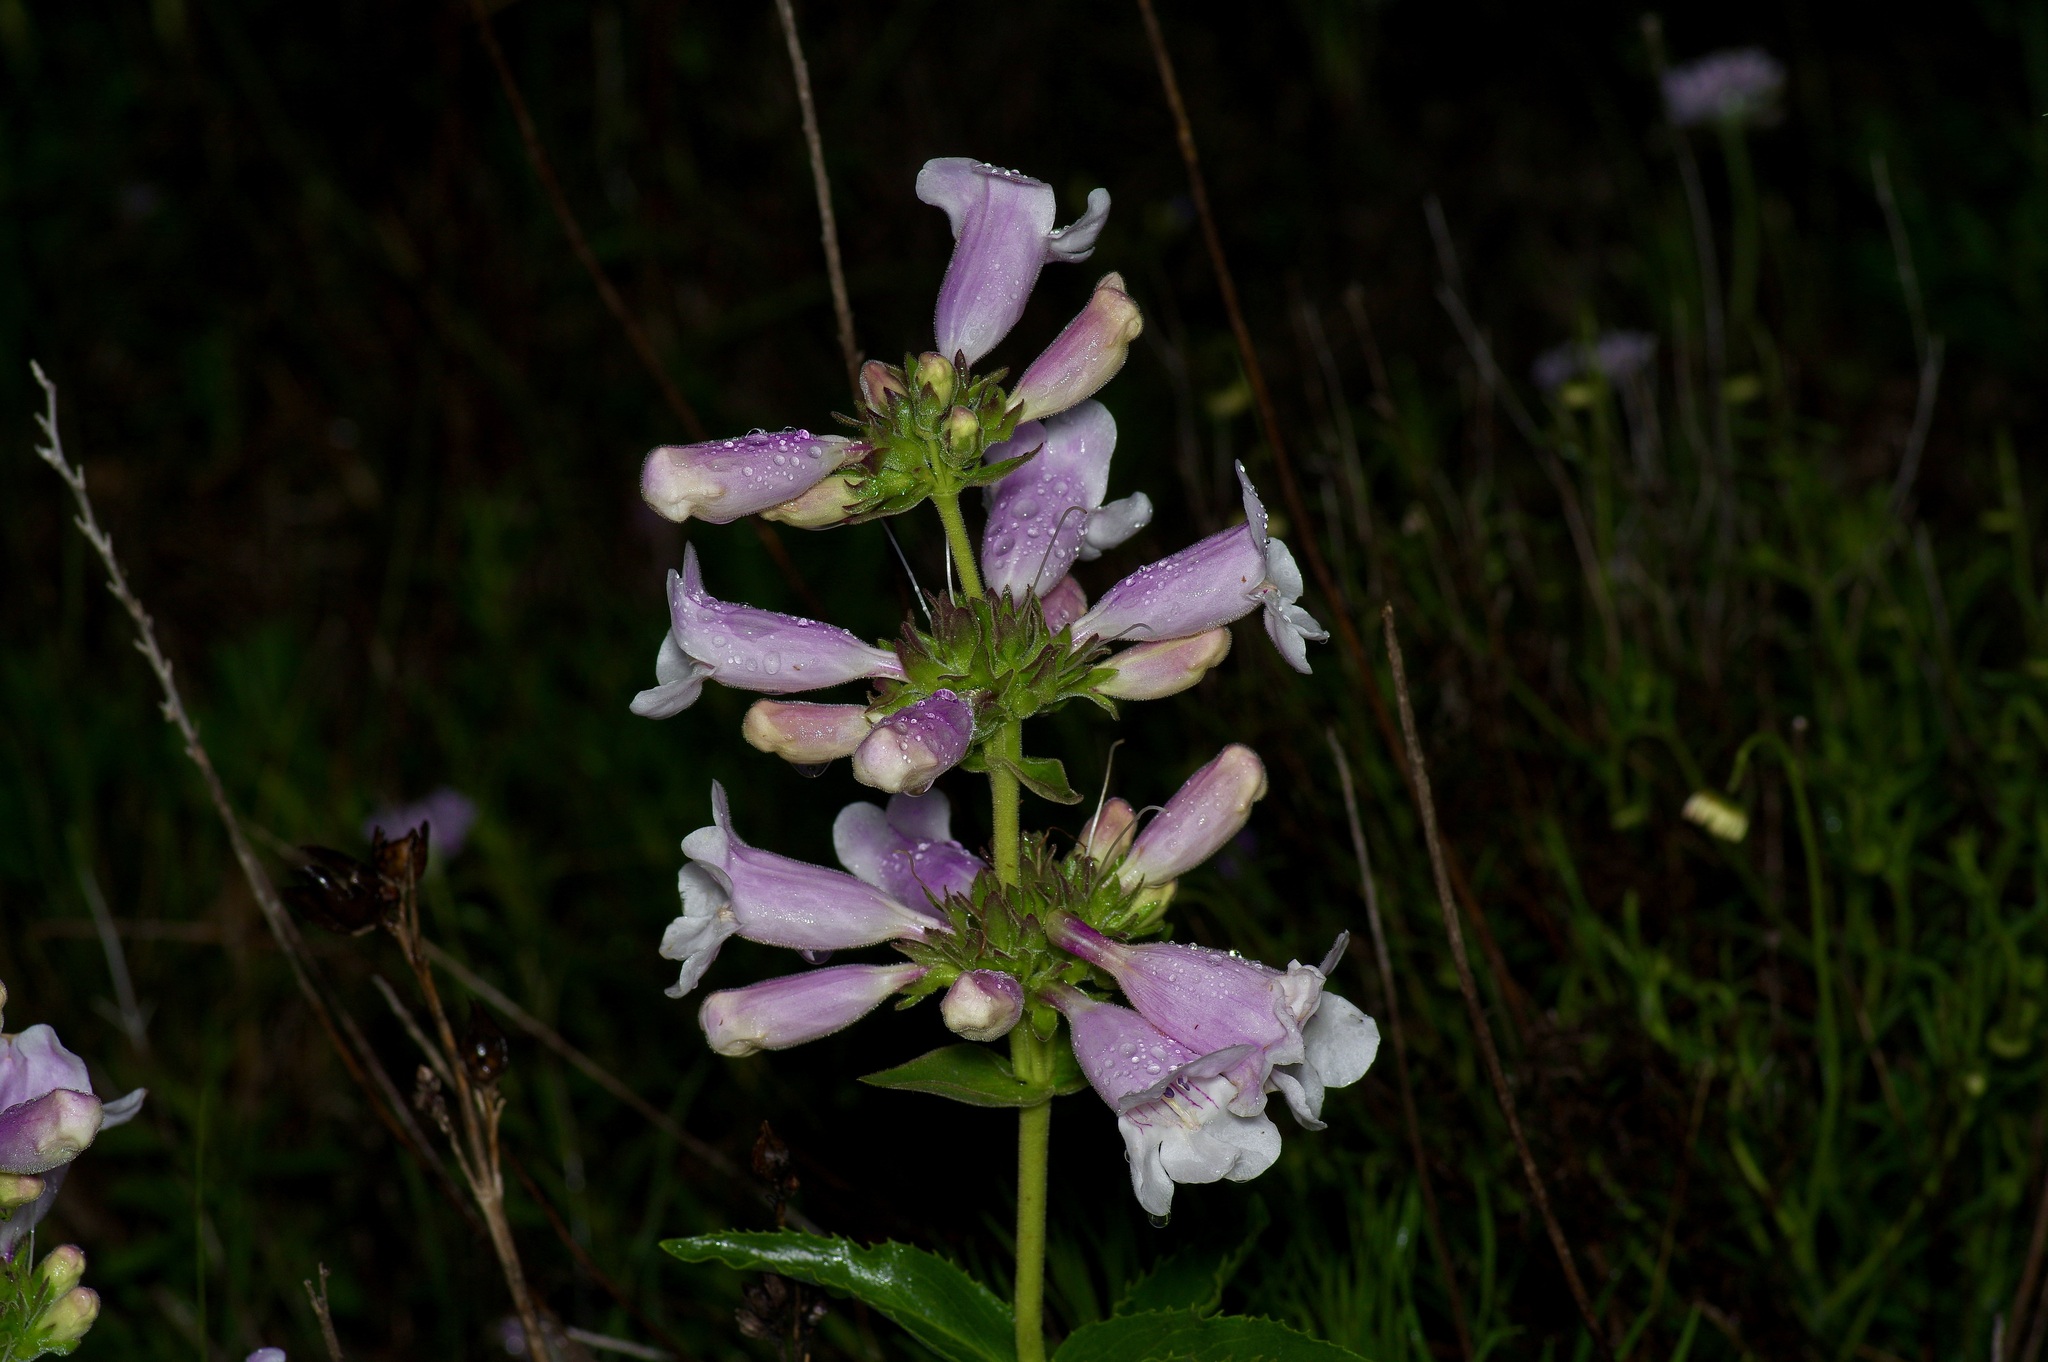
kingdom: Plantae
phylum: Tracheophyta
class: Magnoliopsida
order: Lamiales
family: Plantaginaceae
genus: Penstemon
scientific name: Penstemon cobaea
